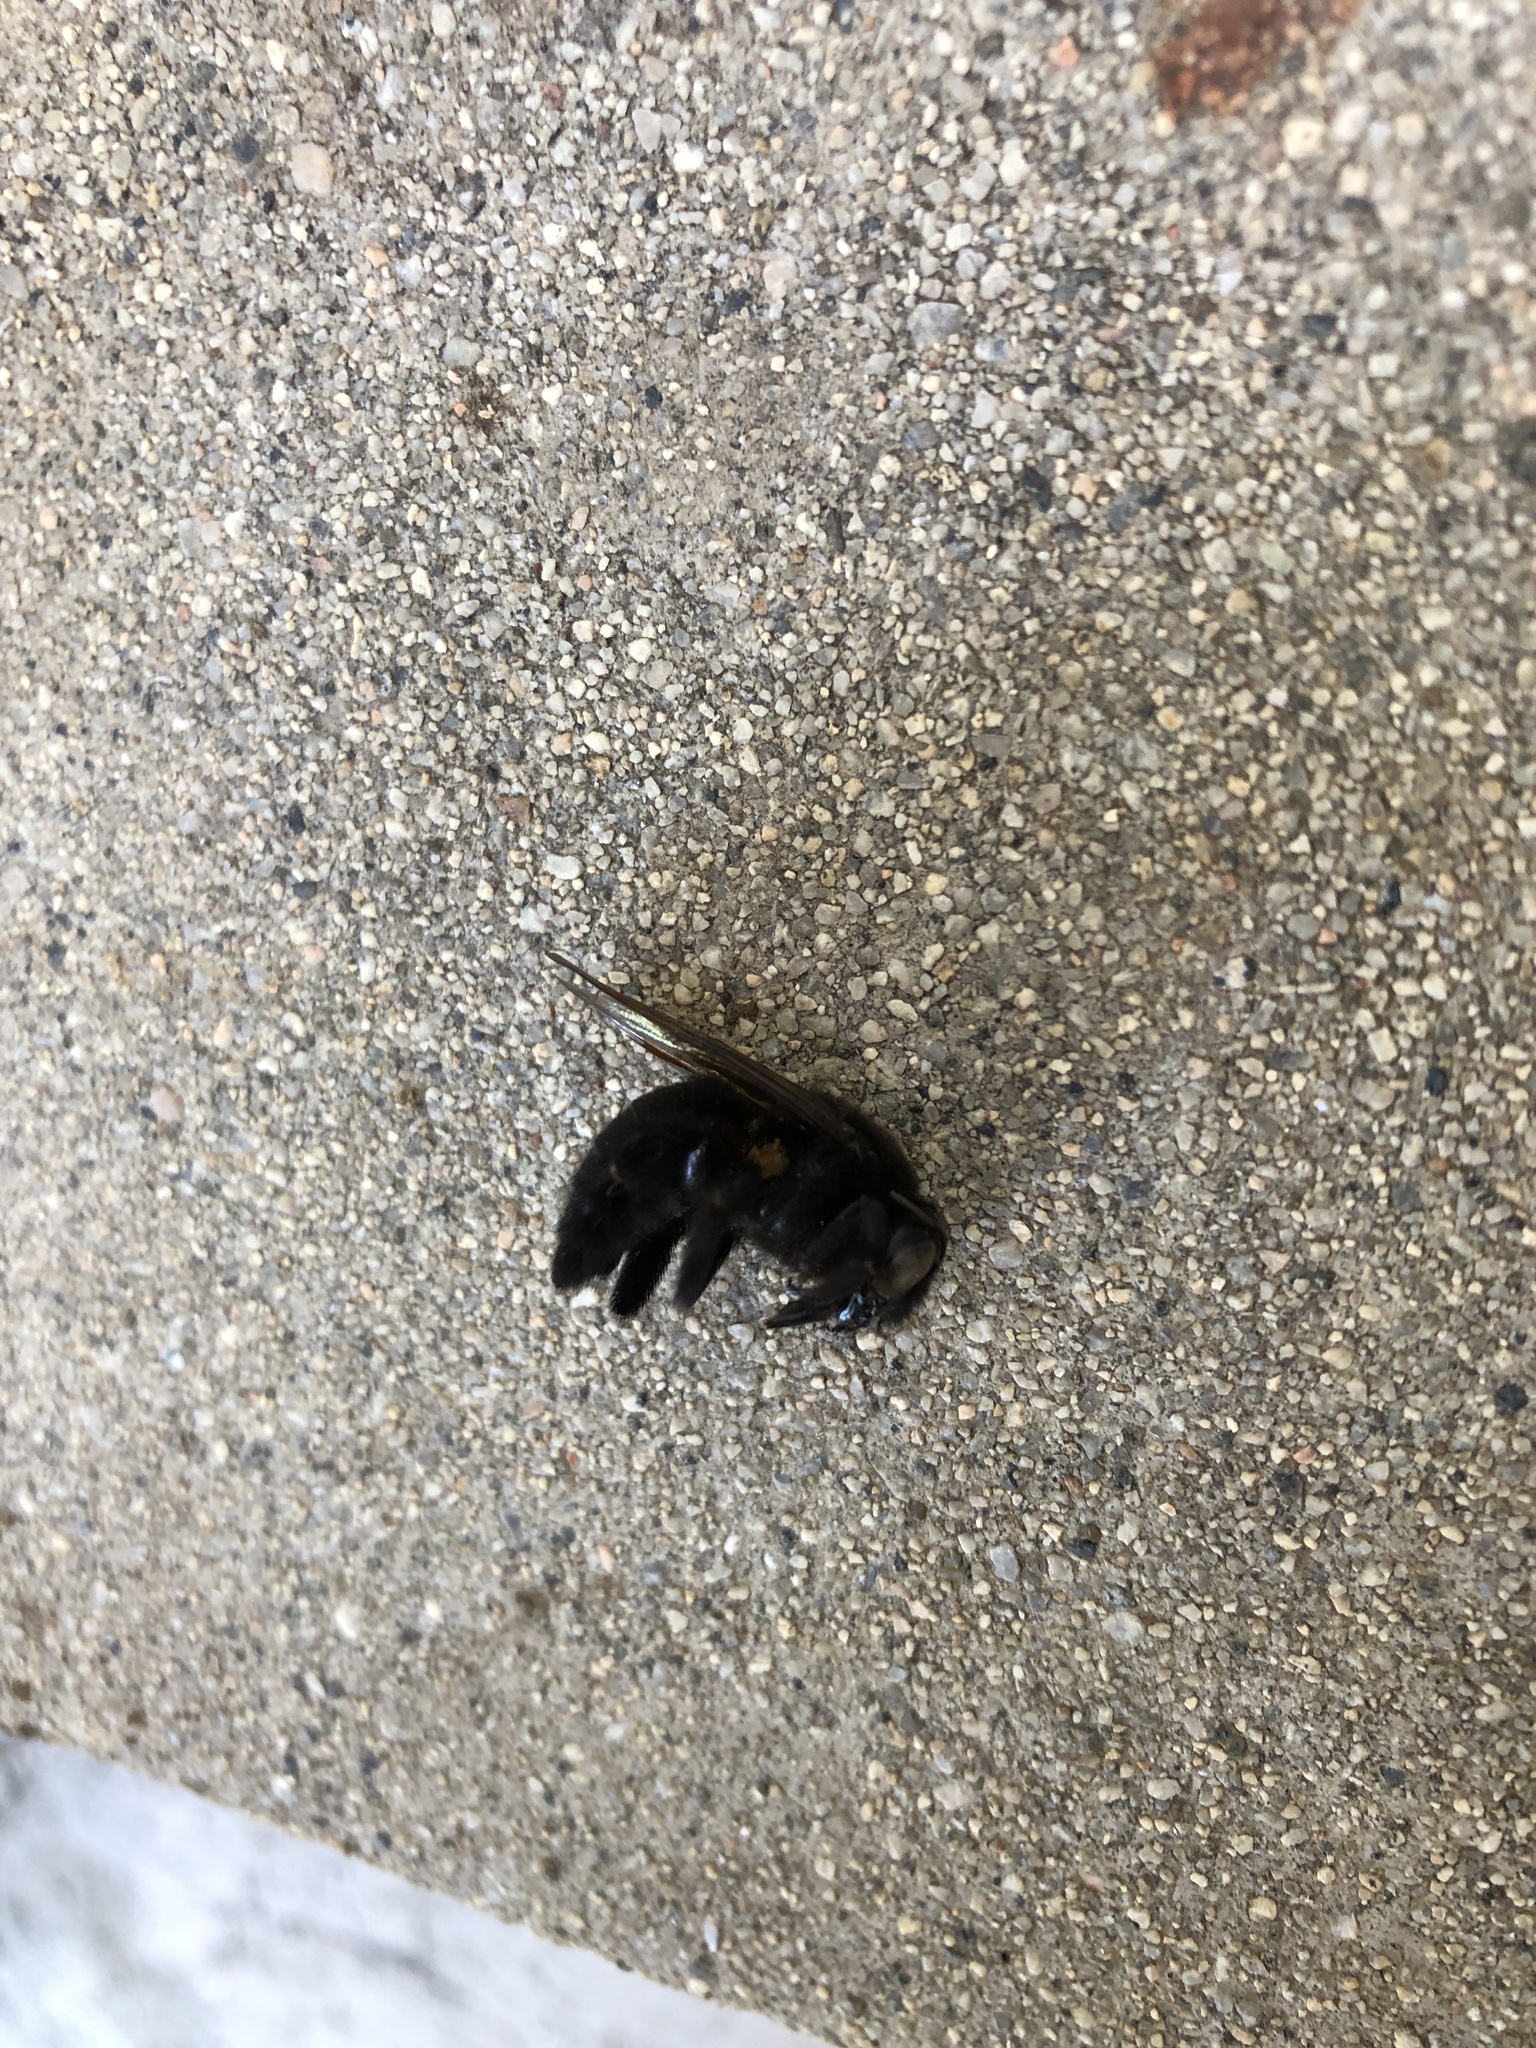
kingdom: Animalia
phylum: Arthropoda
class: Insecta
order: Hymenoptera
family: Apidae
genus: Xylocopa
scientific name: Xylocopa sonorina
